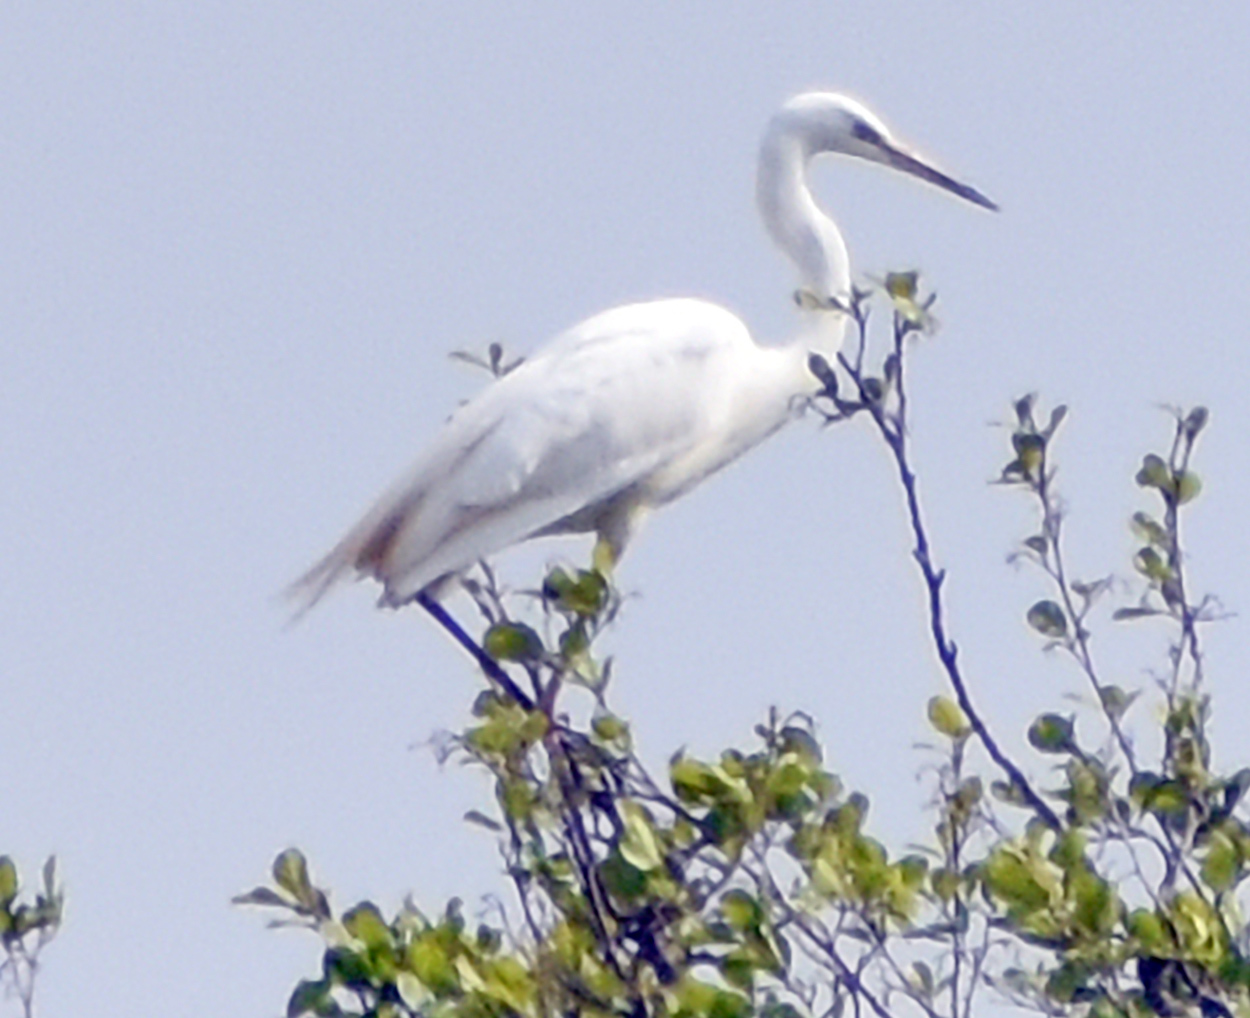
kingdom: Animalia
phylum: Chordata
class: Aves
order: Pelecaniformes
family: Ardeidae
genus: Ardea
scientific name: Ardea alba
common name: Great egret
